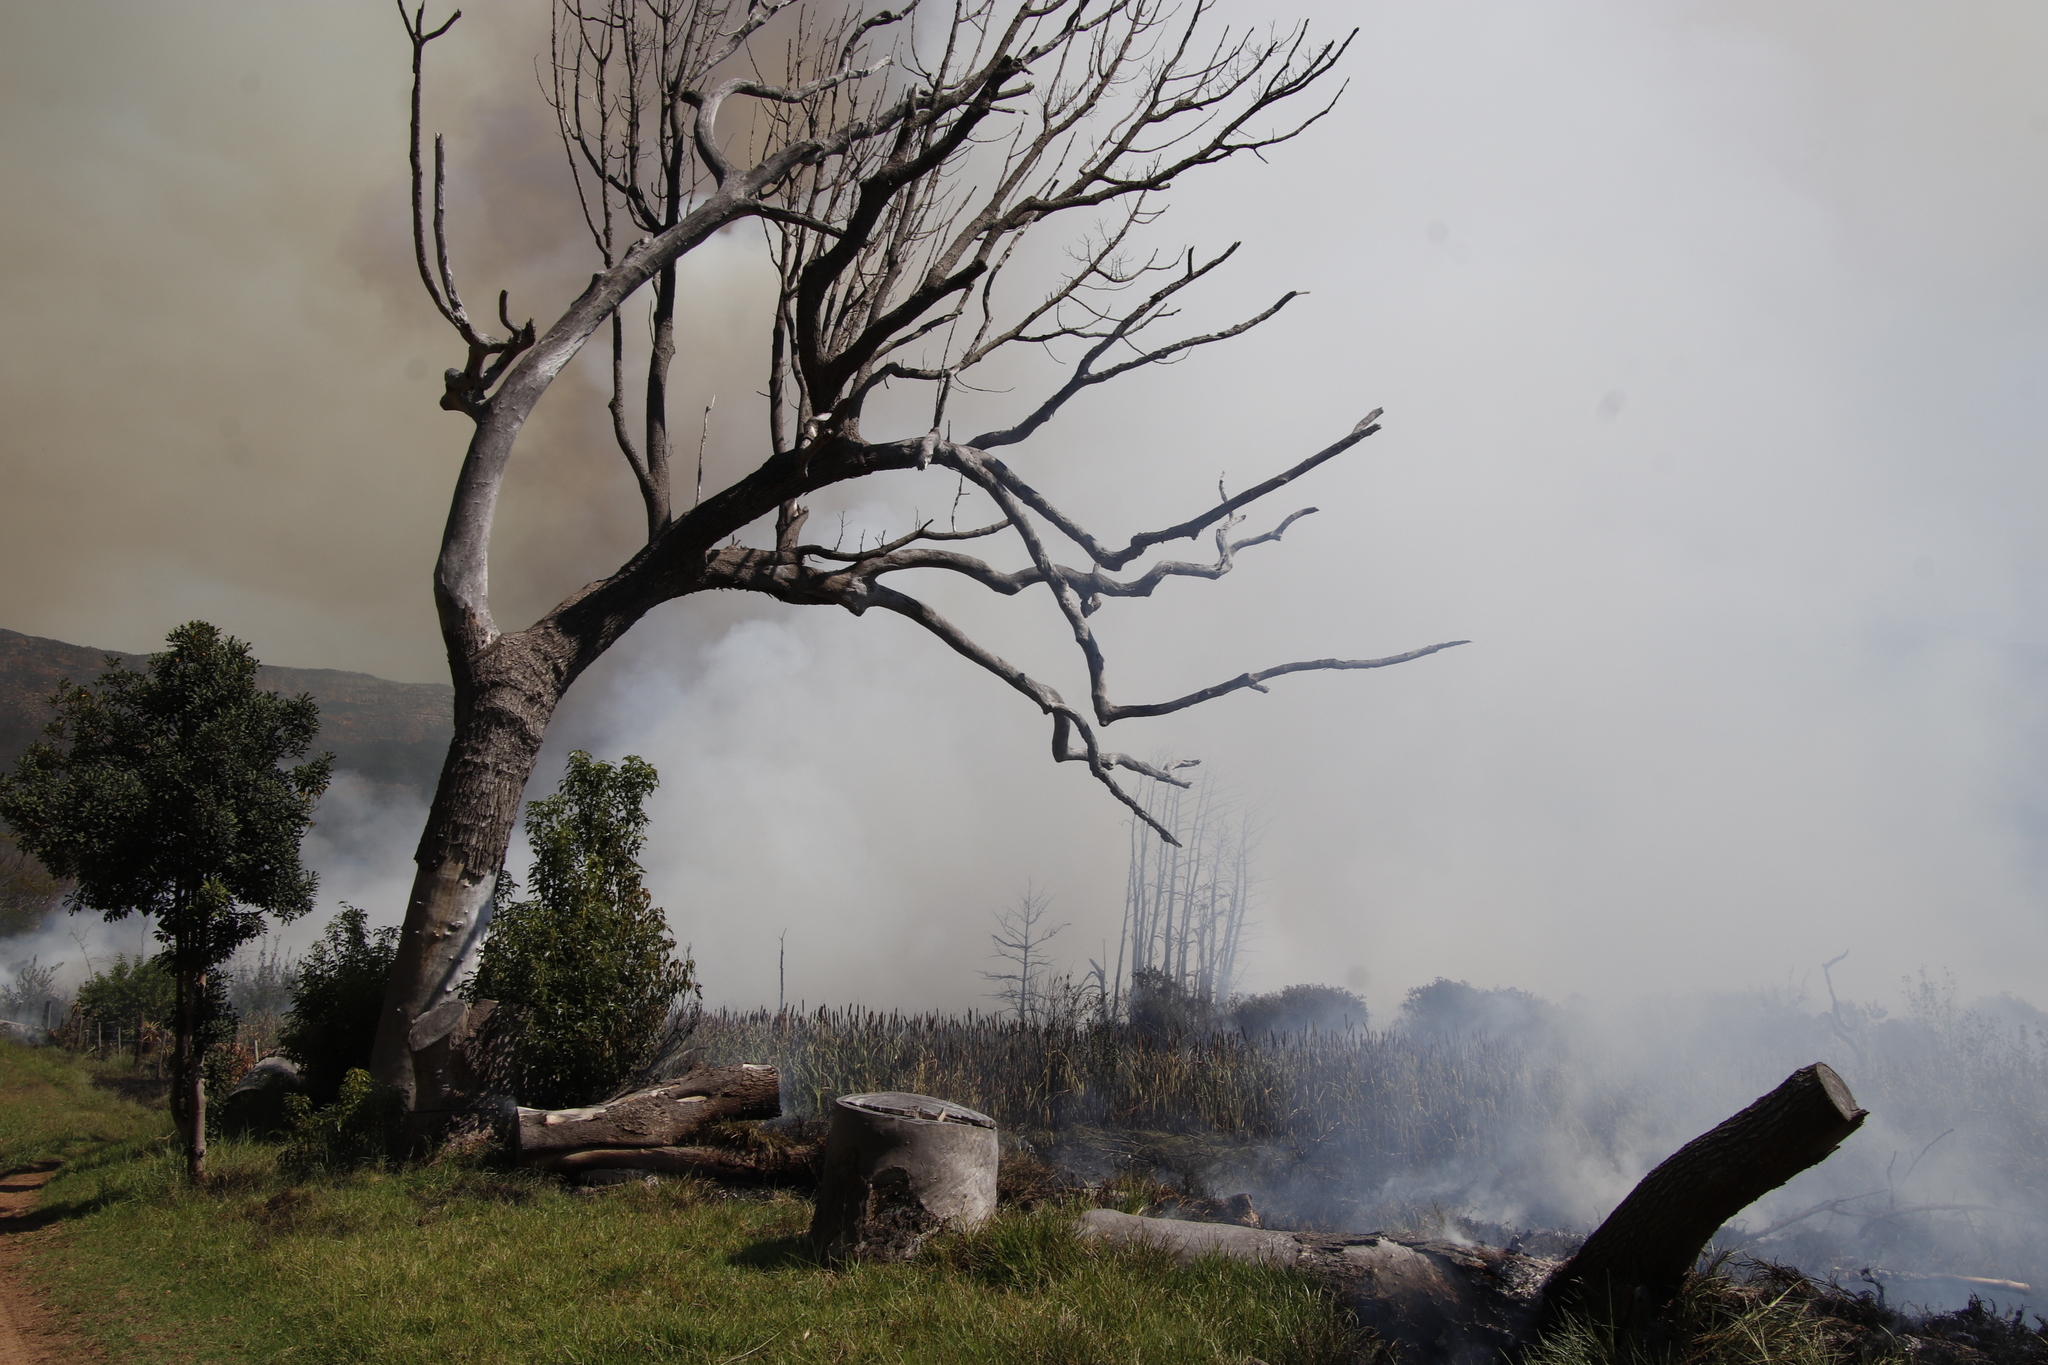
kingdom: Plantae
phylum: Tracheophyta
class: Pinopsida
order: Pinales
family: Pinaceae
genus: Pinus
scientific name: Pinus radiata
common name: Monterey pine
